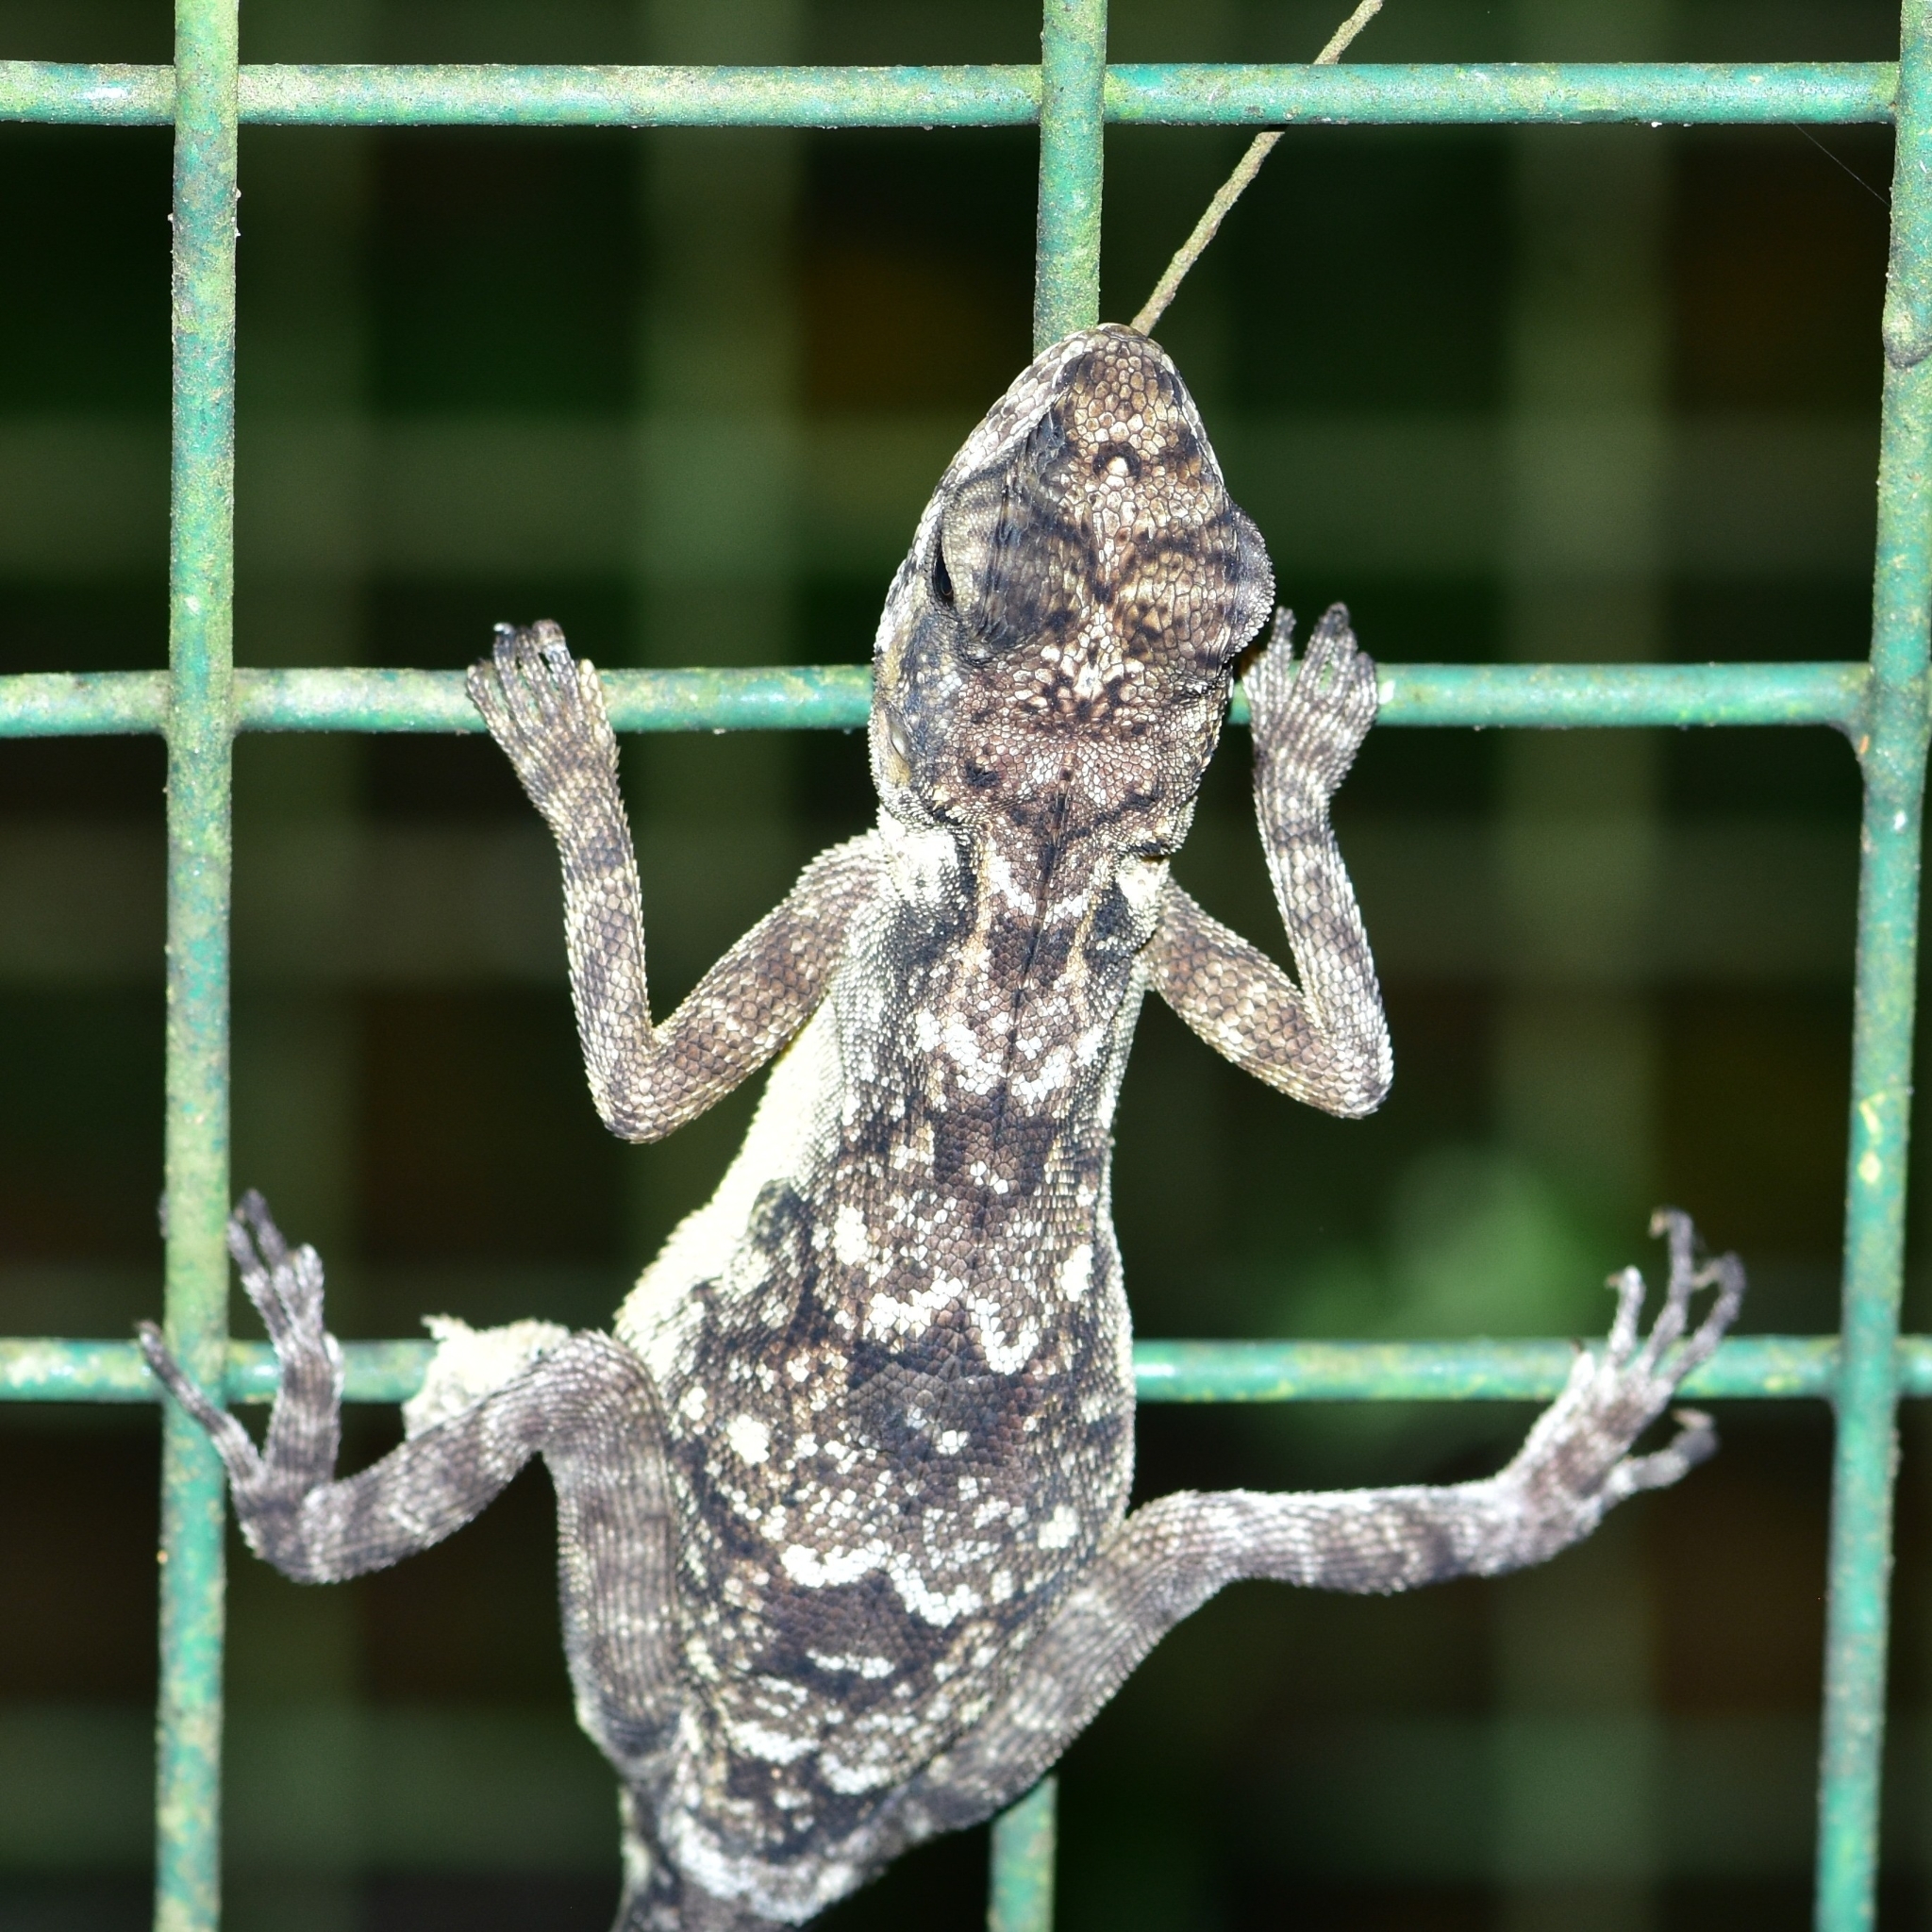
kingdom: Animalia
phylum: Chordata
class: Squamata
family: Agamidae
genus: Psammophilus
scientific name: Psammophilus dorsalis
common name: South indian rock agama
